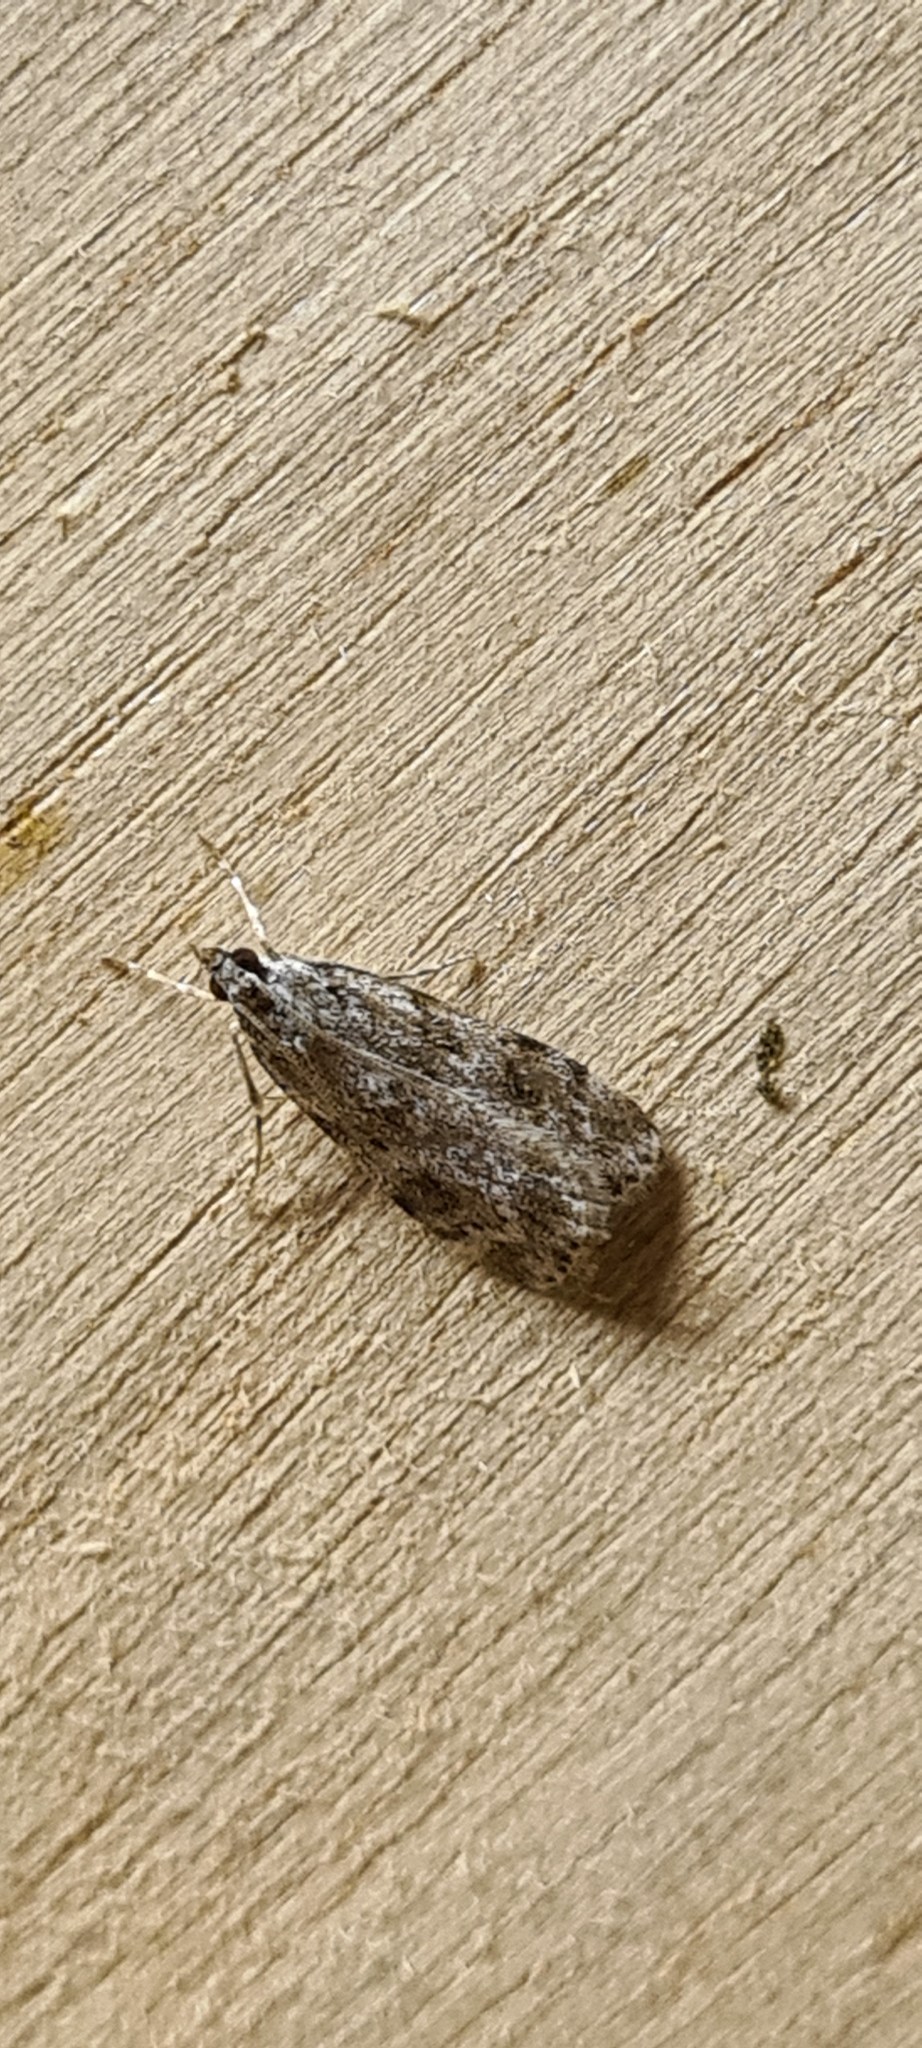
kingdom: Animalia
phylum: Arthropoda
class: Insecta
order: Lepidoptera
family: Crambidae
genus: Scoparia
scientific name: Scoparia ambigualis
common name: Common grey
